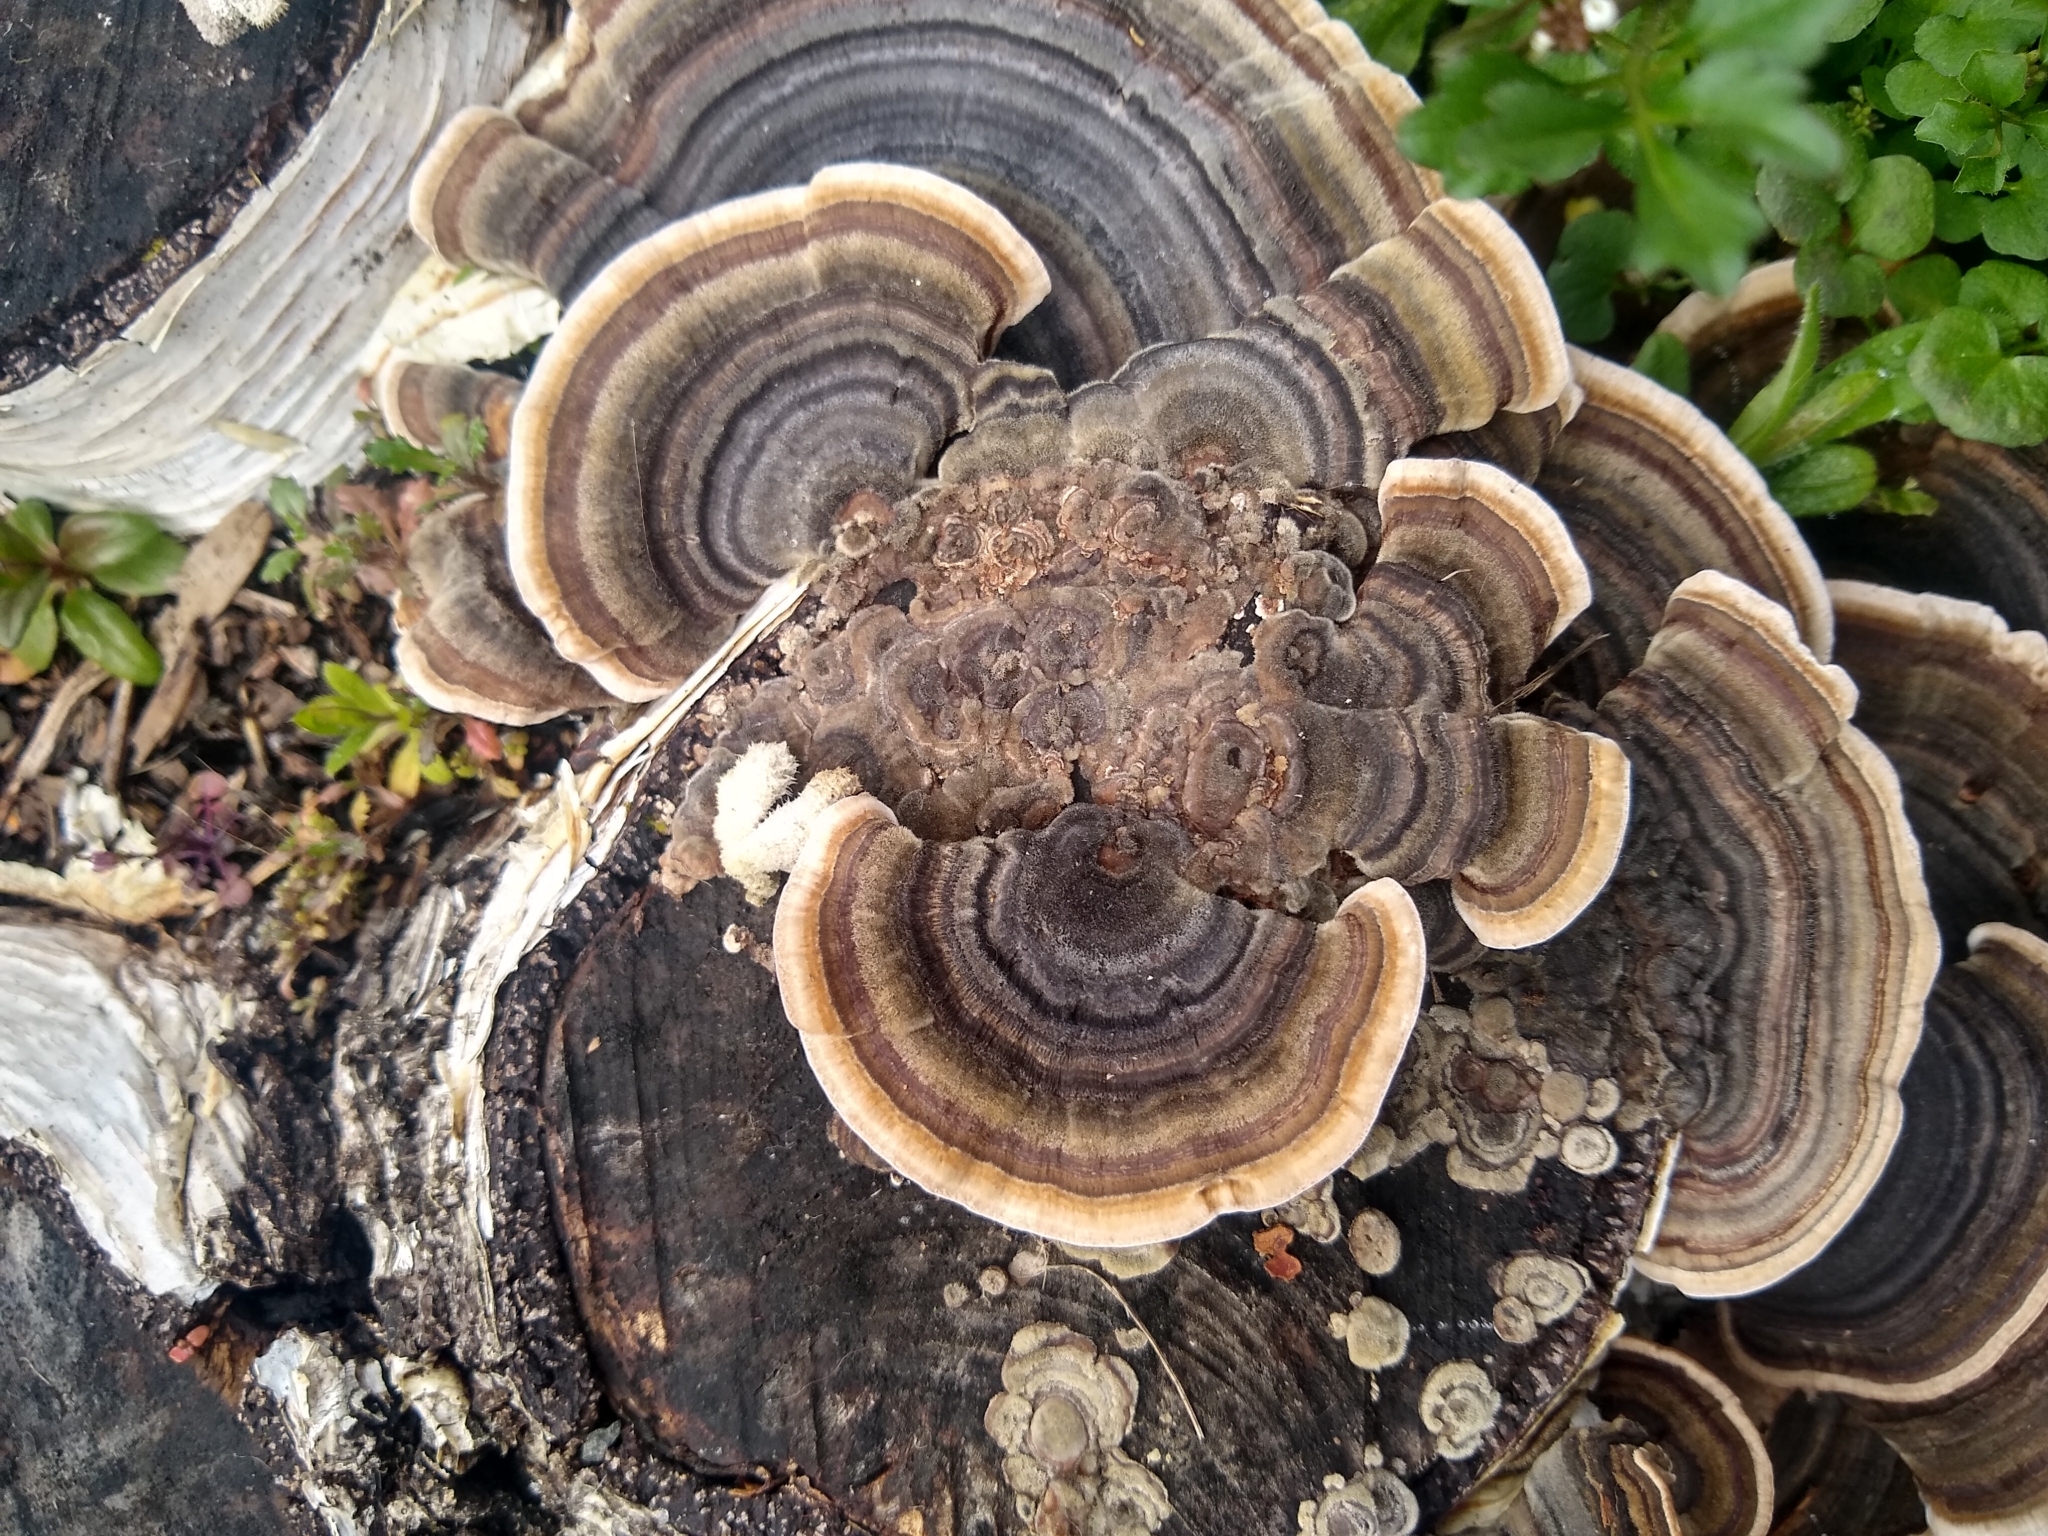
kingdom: Fungi
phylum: Basidiomycota
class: Agaricomycetes
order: Polyporales
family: Polyporaceae
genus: Trametes
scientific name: Trametes versicolor
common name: Turkeytail
